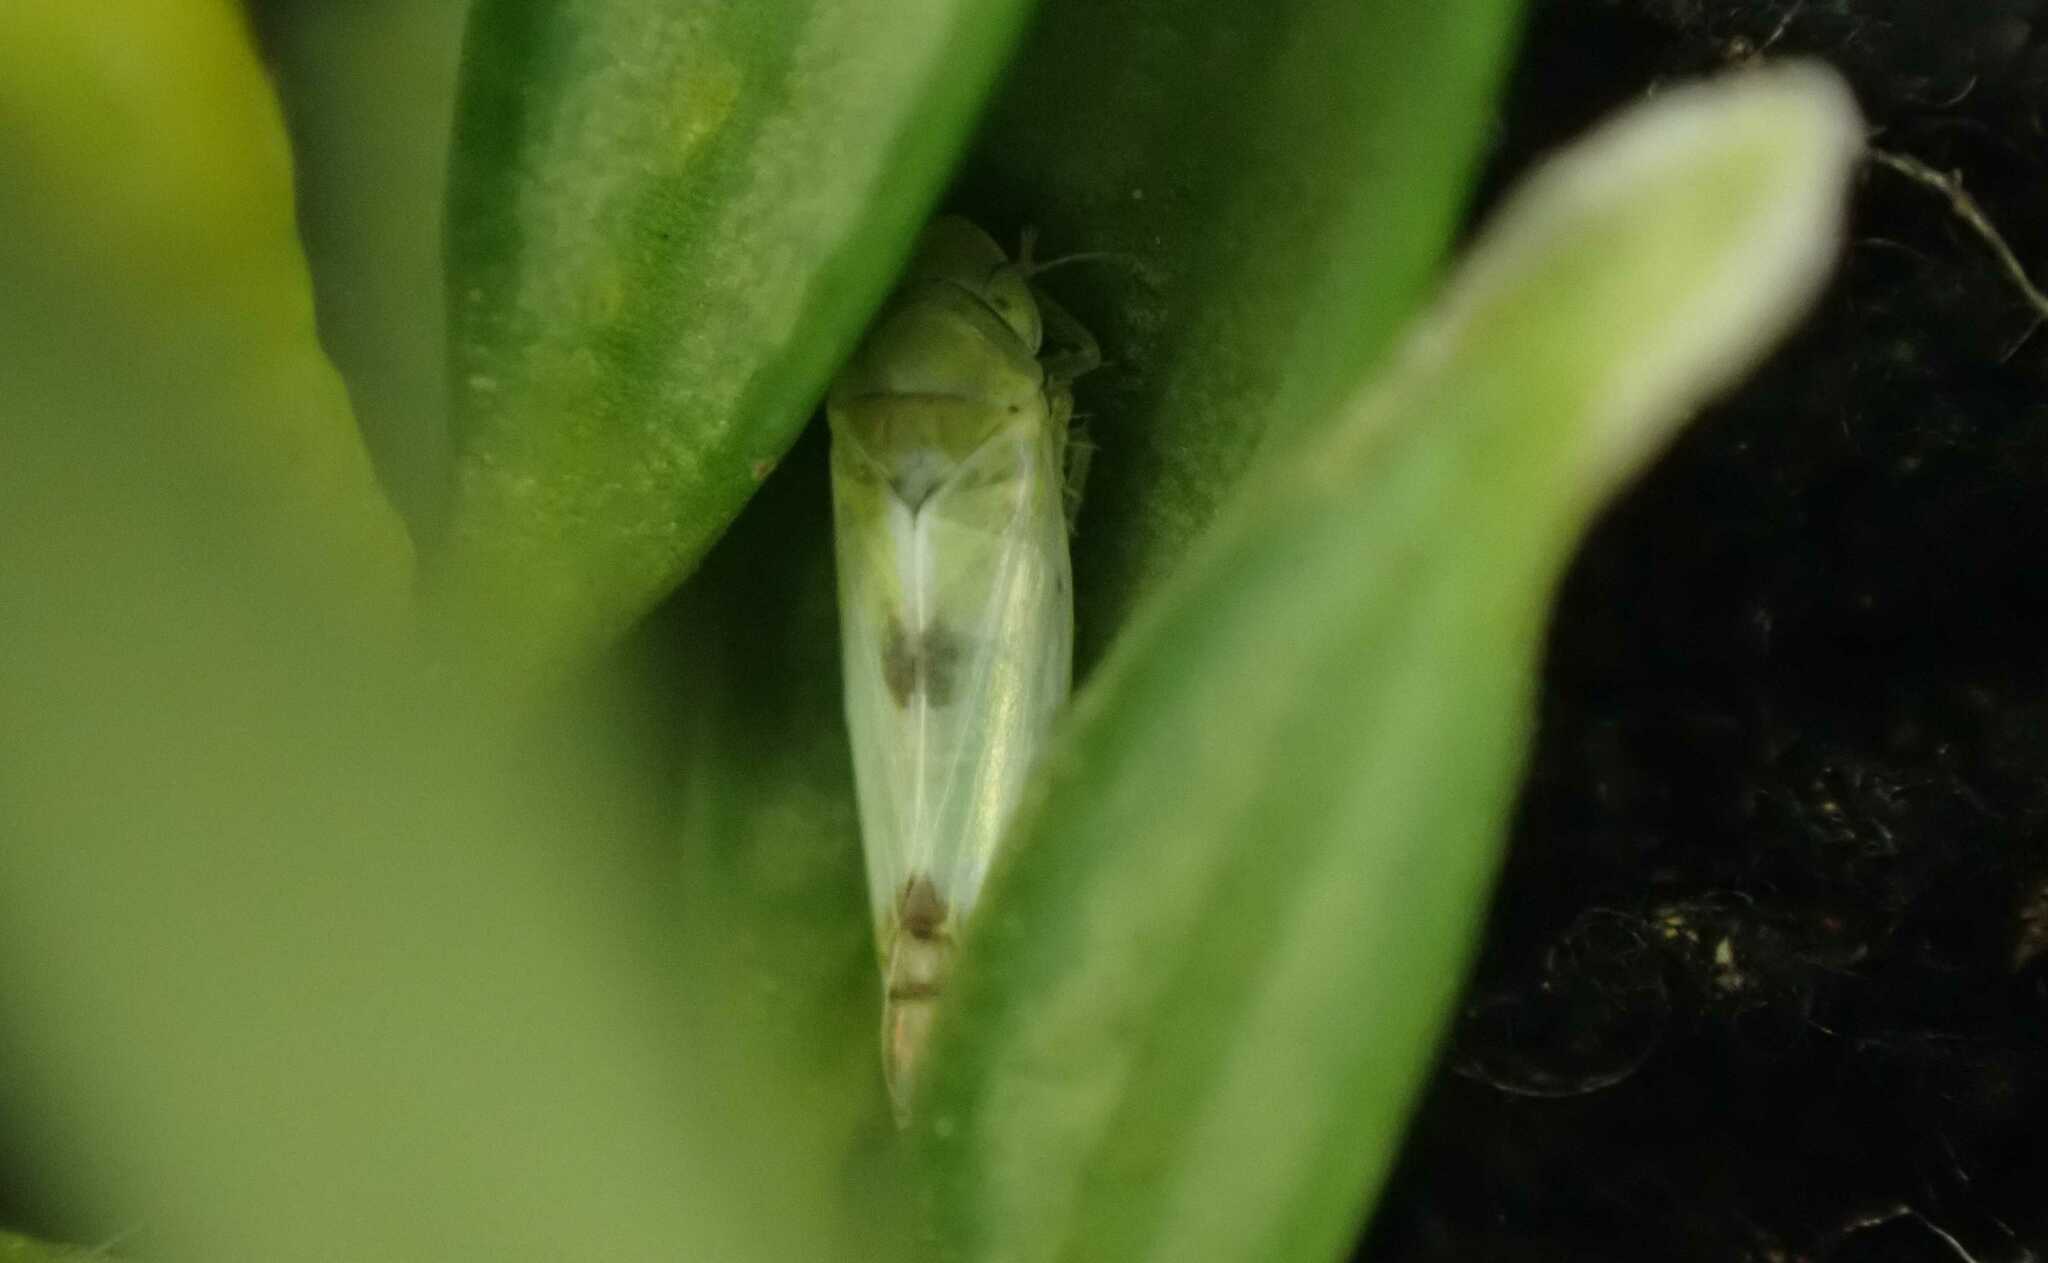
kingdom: Animalia
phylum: Arthropoda
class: Insecta
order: Hemiptera
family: Cicadellidae
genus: Zyginella
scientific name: Zyginella pulchra
